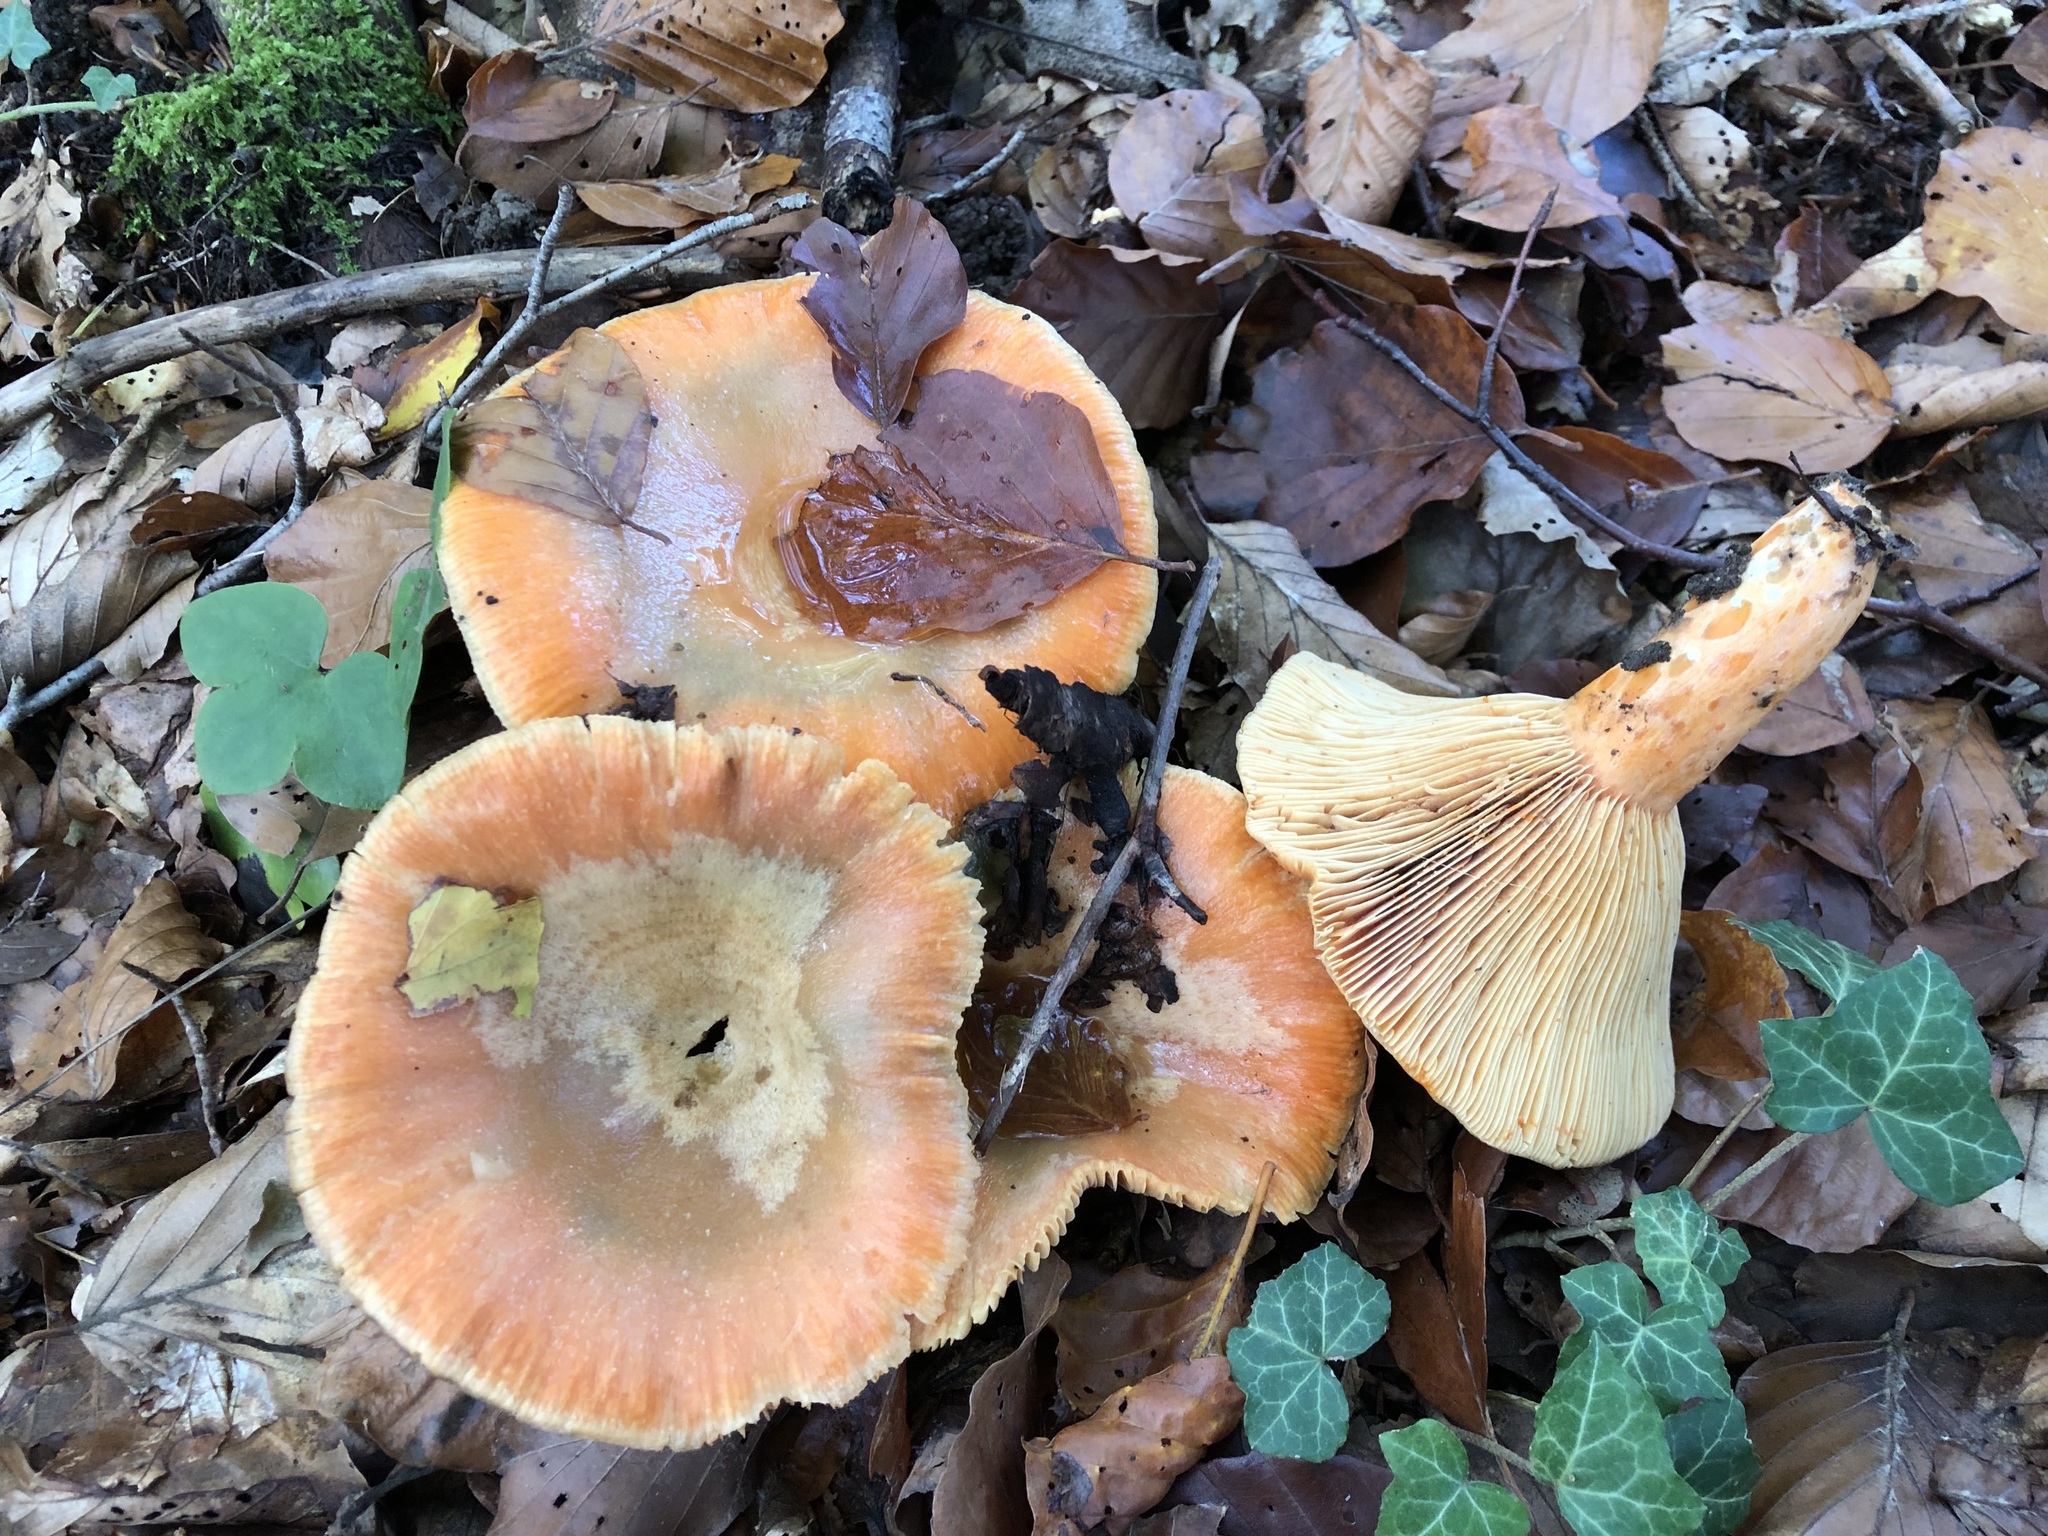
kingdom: Fungi
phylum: Basidiomycota
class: Agaricomycetes
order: Russulales
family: Russulaceae
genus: Lactarius
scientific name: Lactarius salmonicolor
